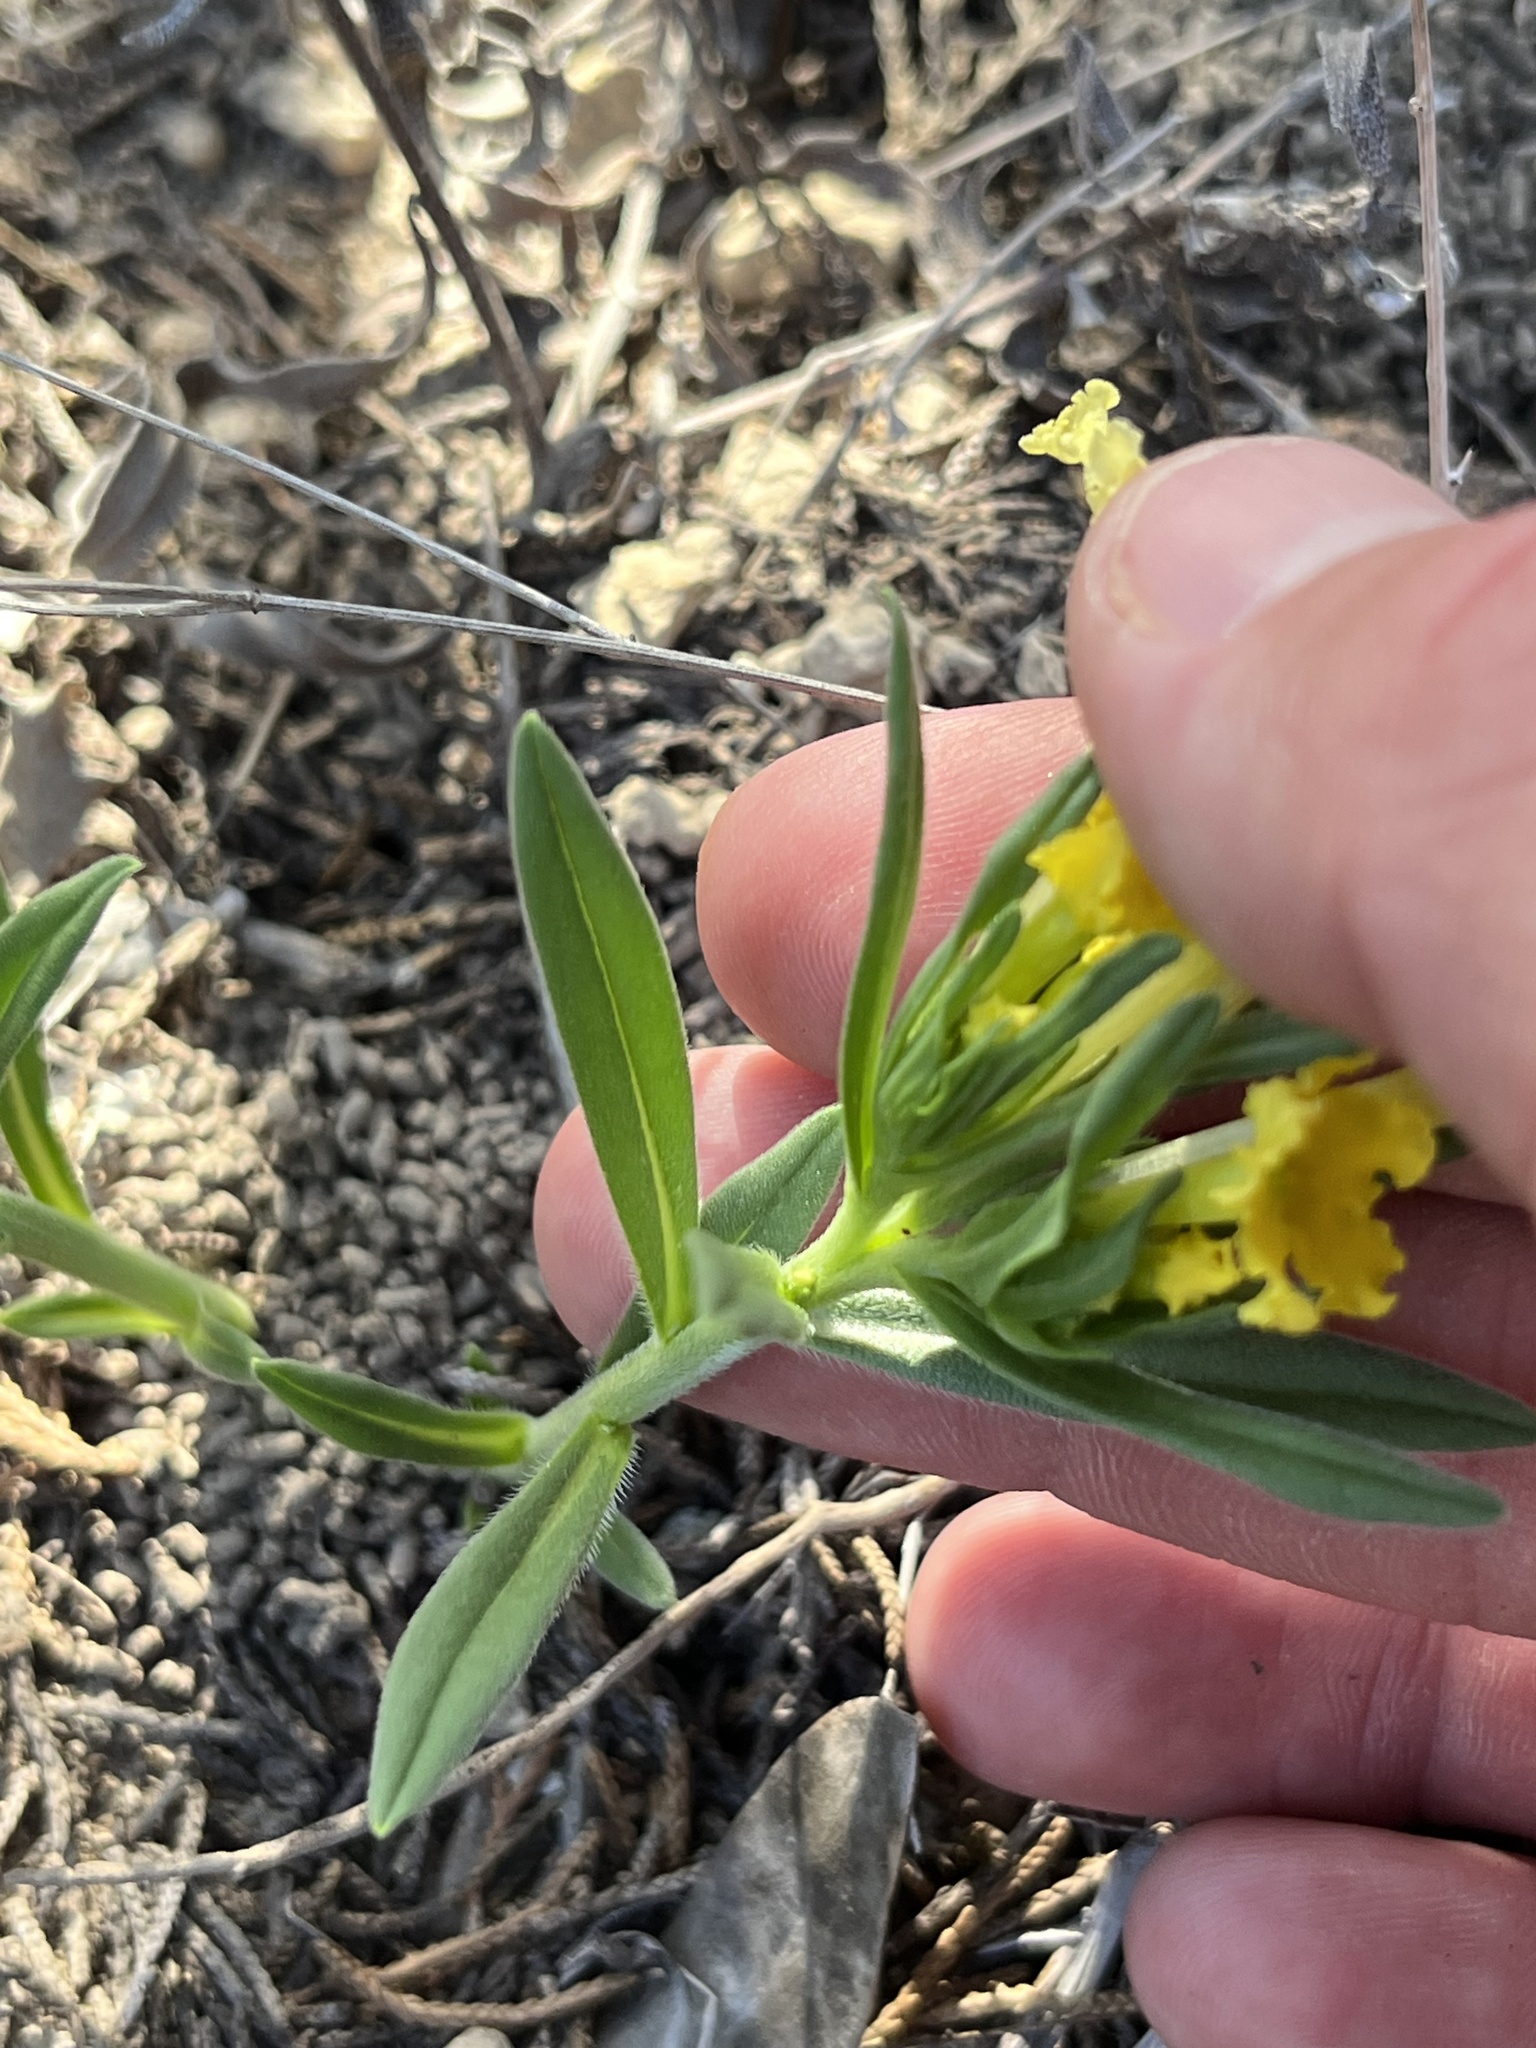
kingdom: Plantae
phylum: Tracheophyta
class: Magnoliopsida
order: Boraginales
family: Boraginaceae
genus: Lithospermum
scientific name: Lithospermum incisum
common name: Fringed gromwell
